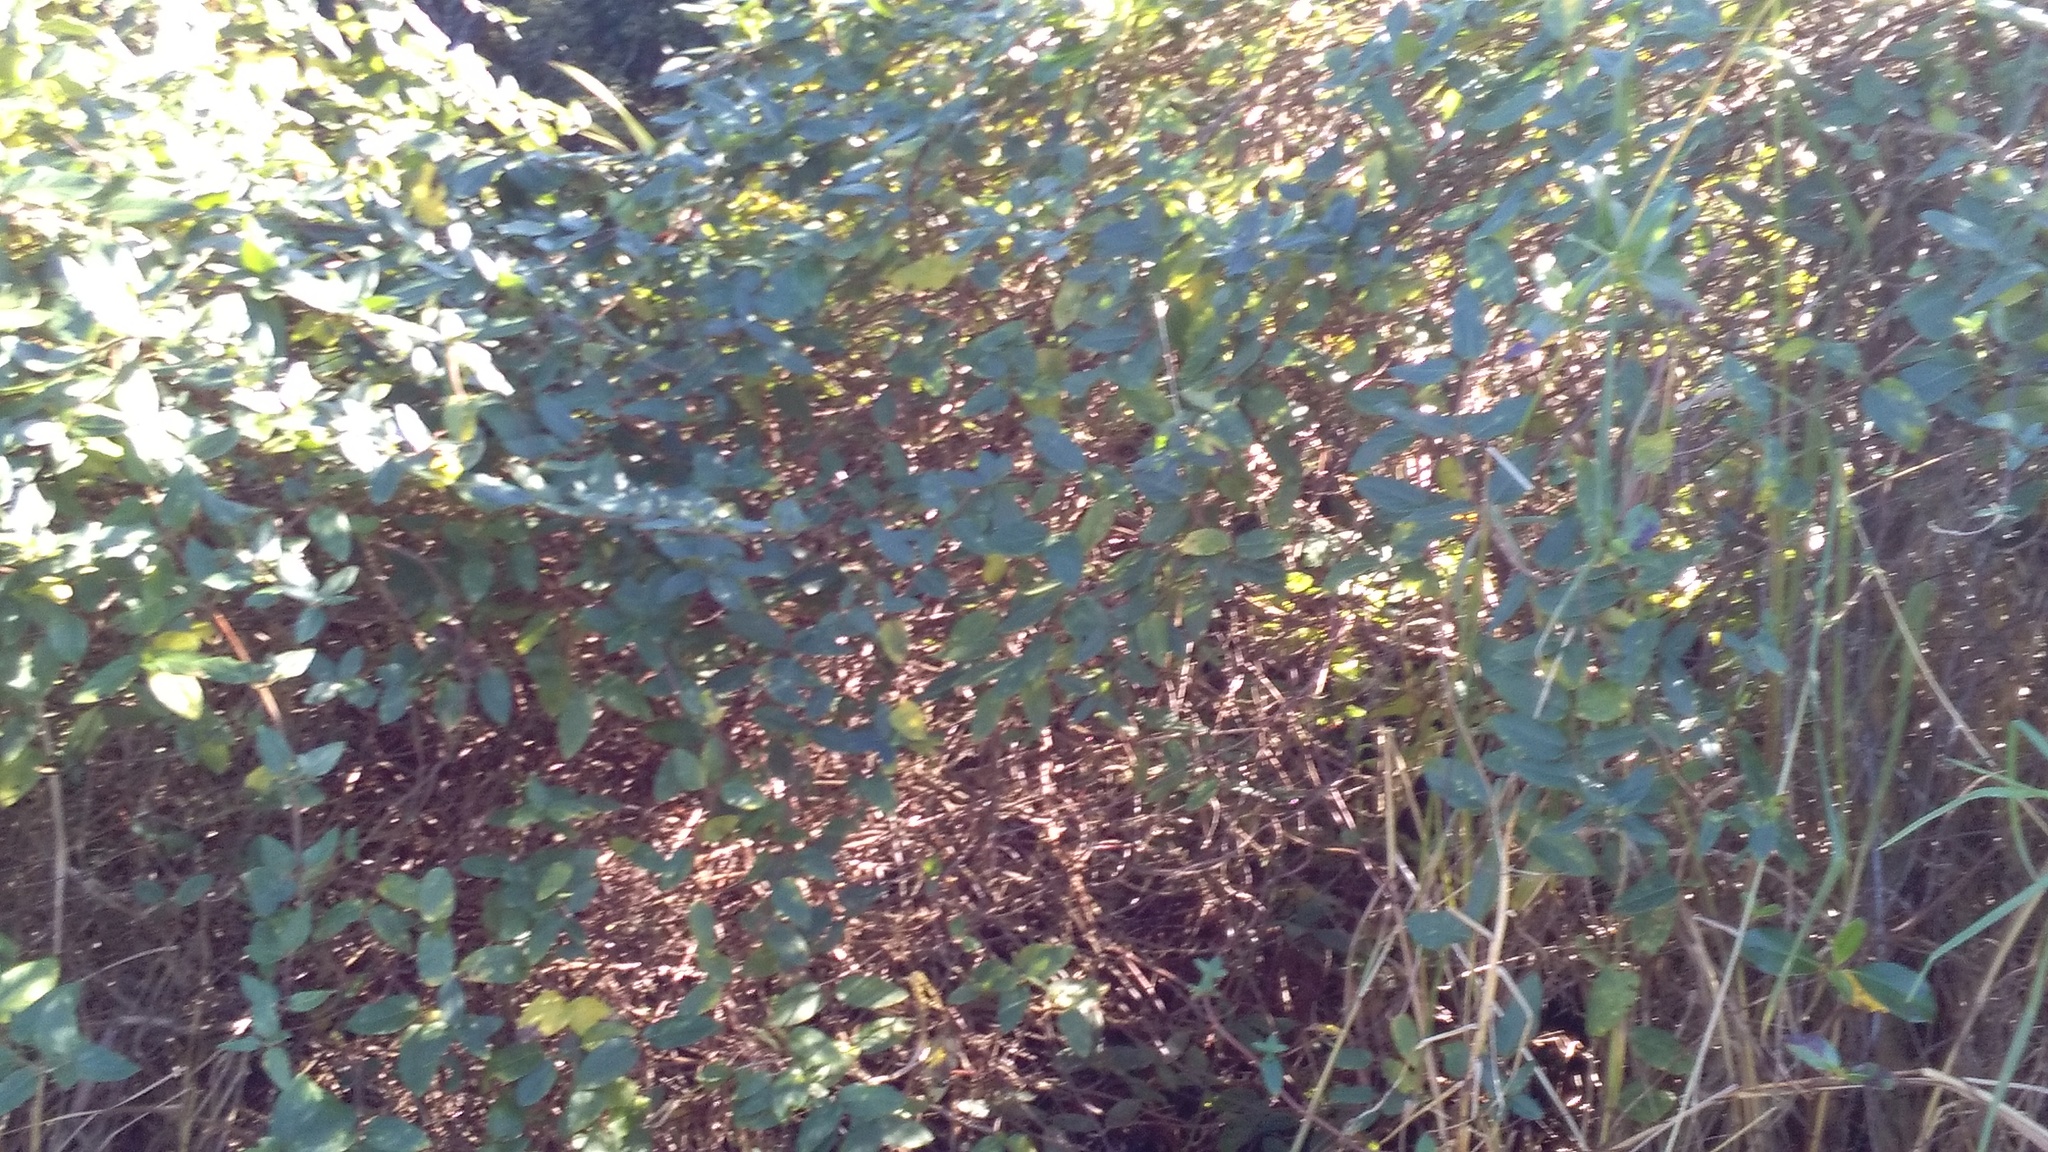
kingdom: Plantae
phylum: Tracheophyta
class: Magnoliopsida
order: Dipsacales
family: Caprifoliaceae
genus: Lonicera
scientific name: Lonicera japonica
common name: Japanese honeysuckle
